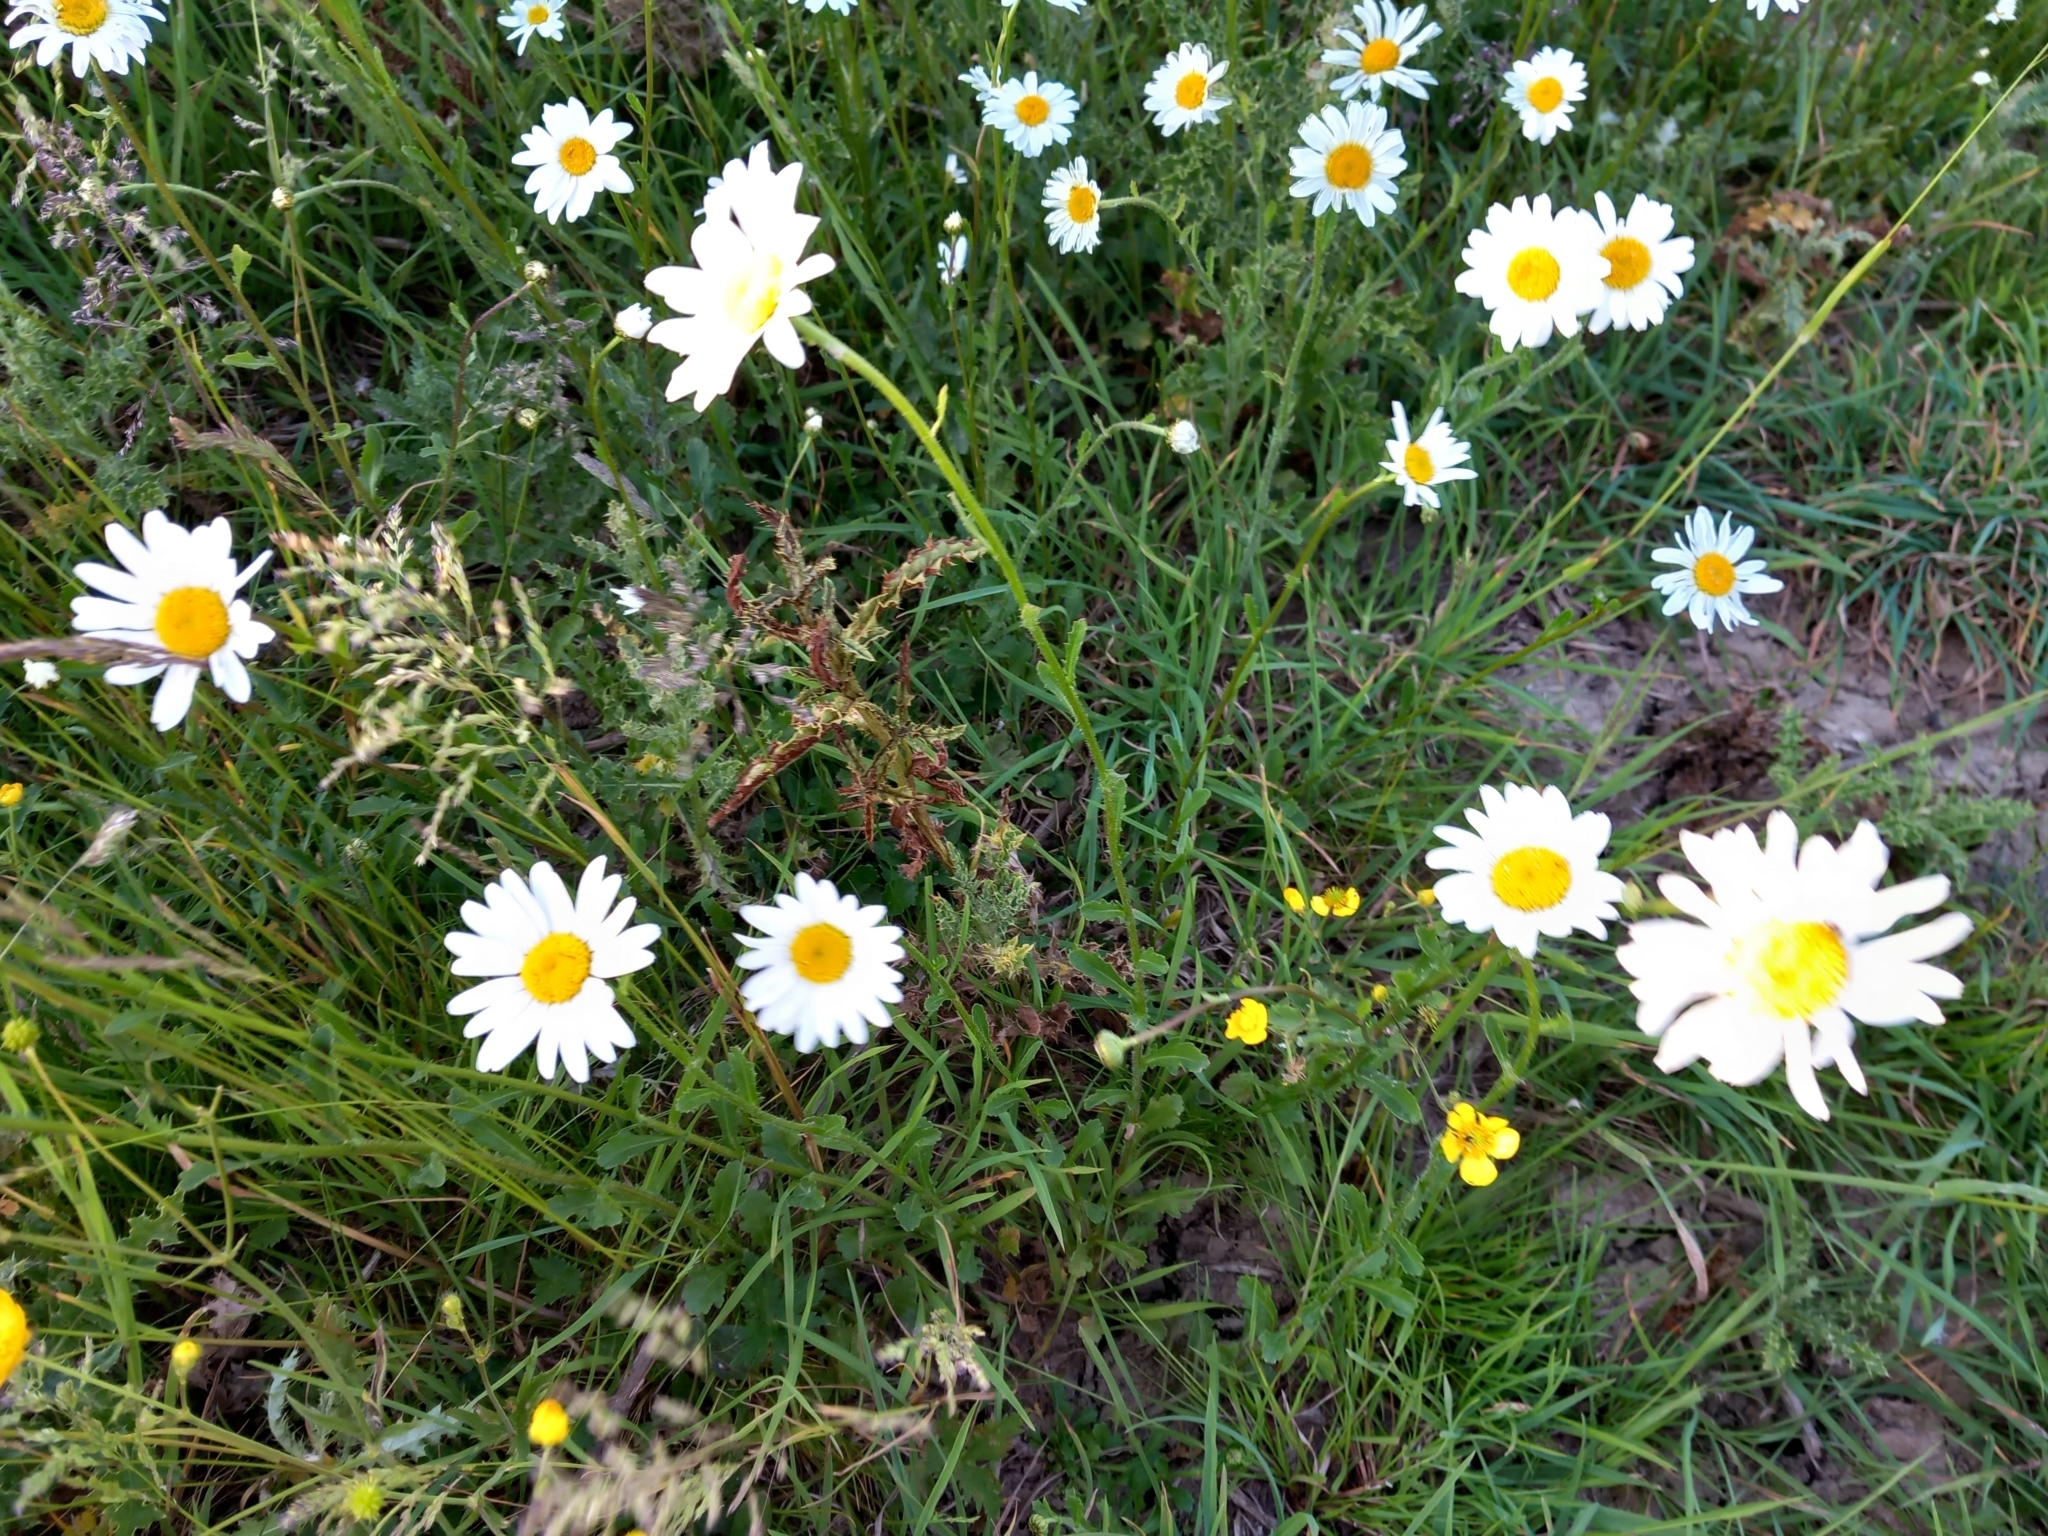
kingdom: Plantae
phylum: Tracheophyta
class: Magnoliopsida
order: Asterales
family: Asteraceae
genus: Leucanthemum
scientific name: Leucanthemum vulgare
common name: Oxeye daisy
